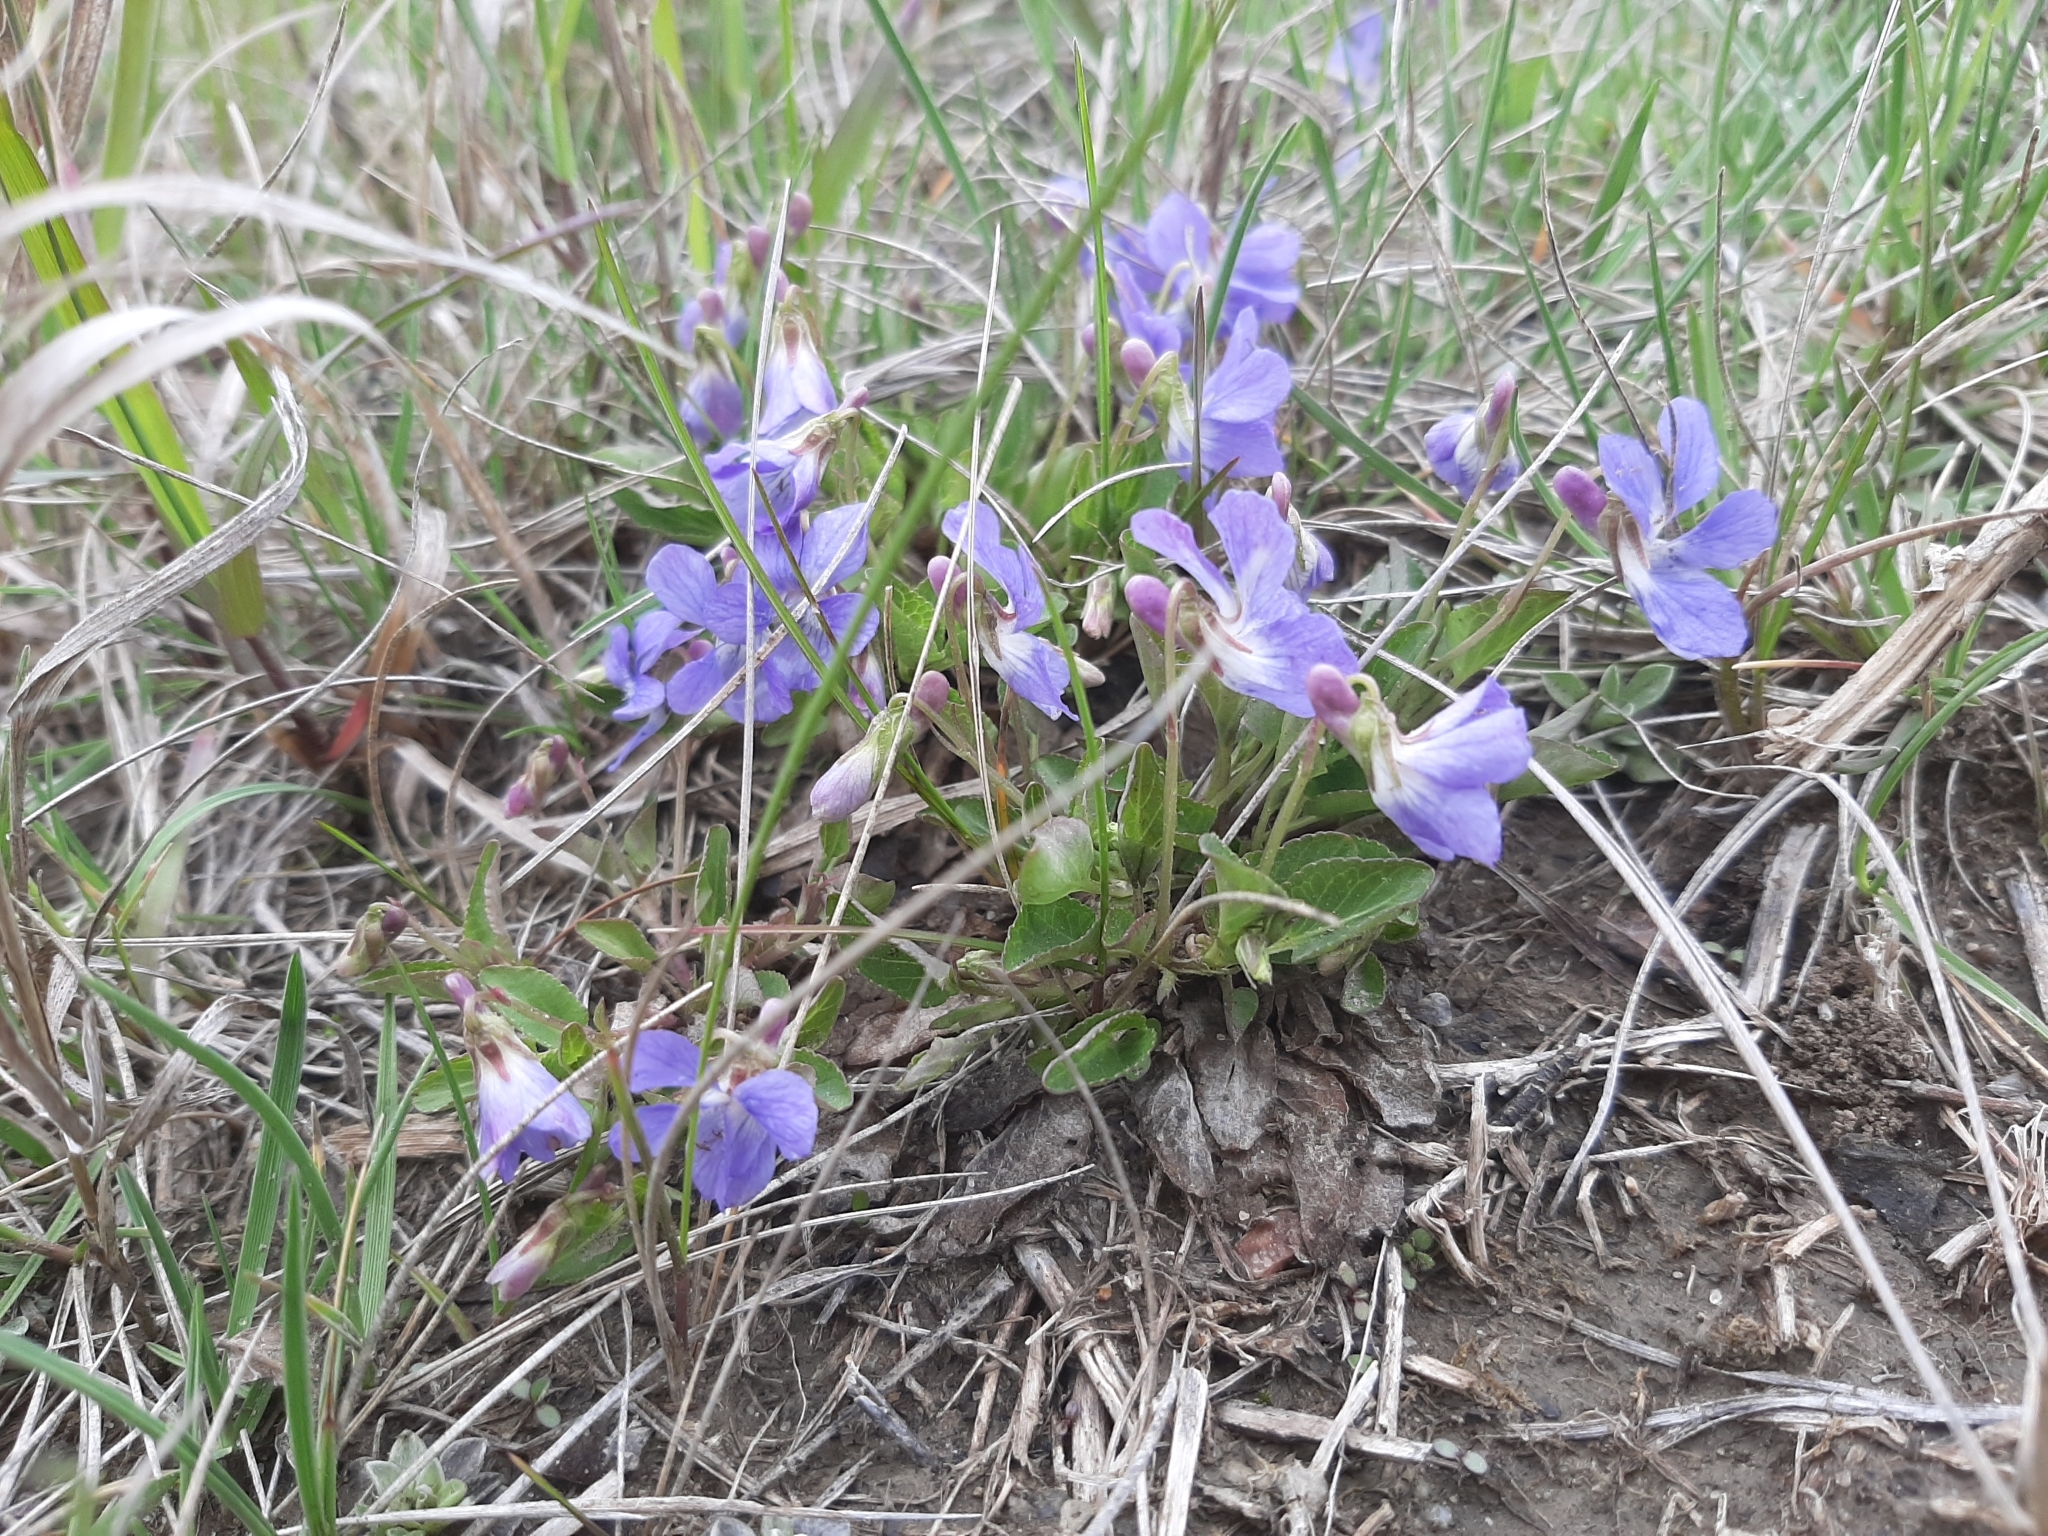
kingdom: Plantae
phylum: Tracheophyta
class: Magnoliopsida
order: Malpighiales
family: Violaceae
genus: Viola
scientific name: Viola adunca
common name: Sand violet
